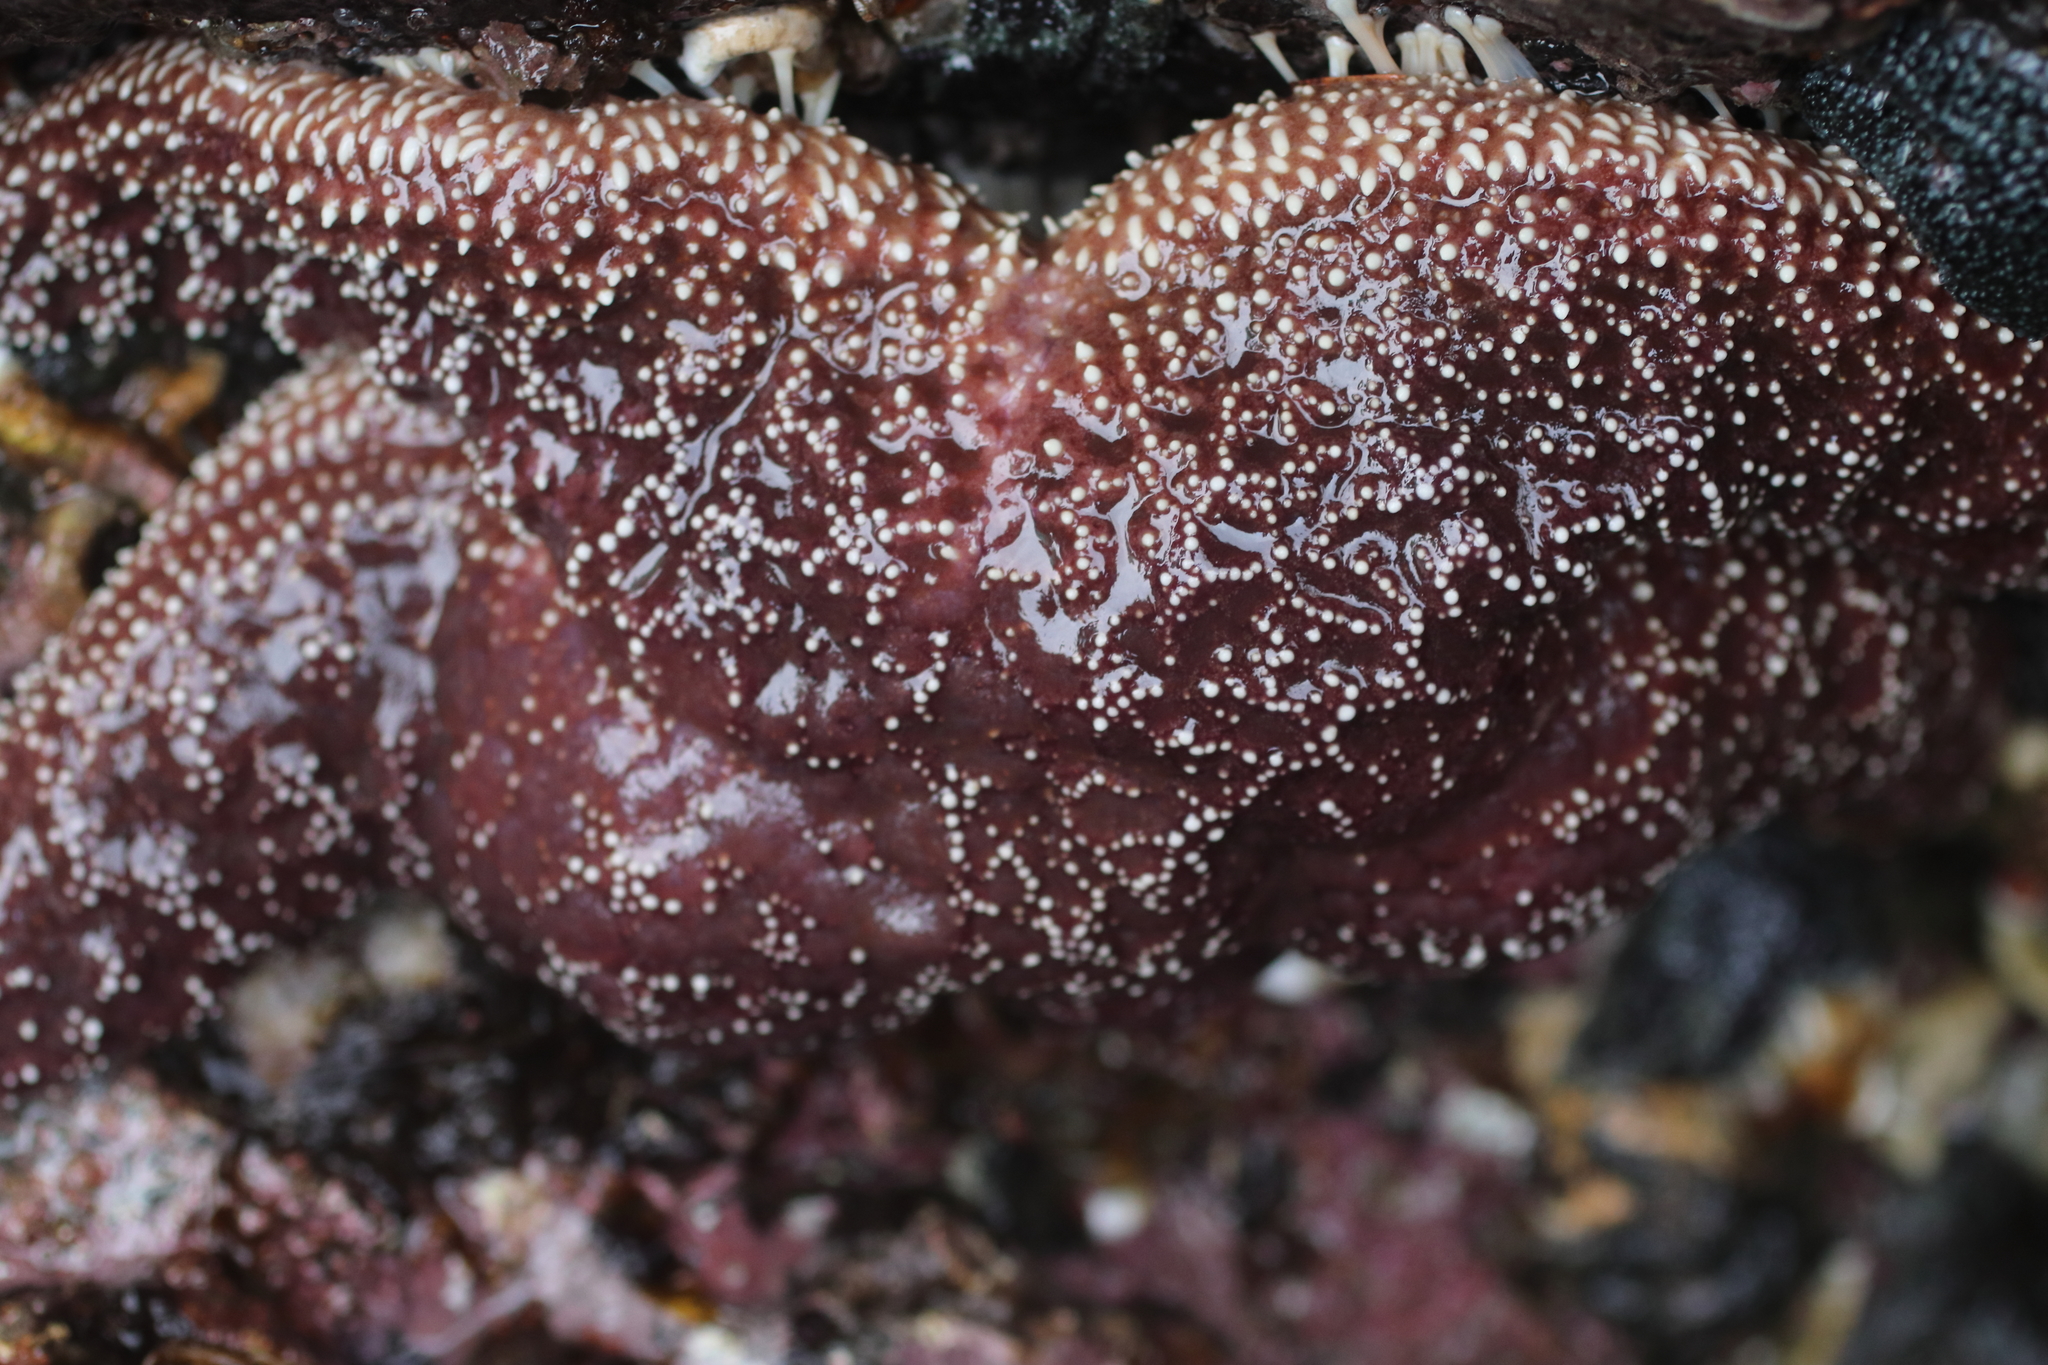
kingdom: Animalia
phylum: Echinodermata
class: Asteroidea
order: Forcipulatida
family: Asteriidae
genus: Pisaster
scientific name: Pisaster ochraceus
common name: Ochre stars
